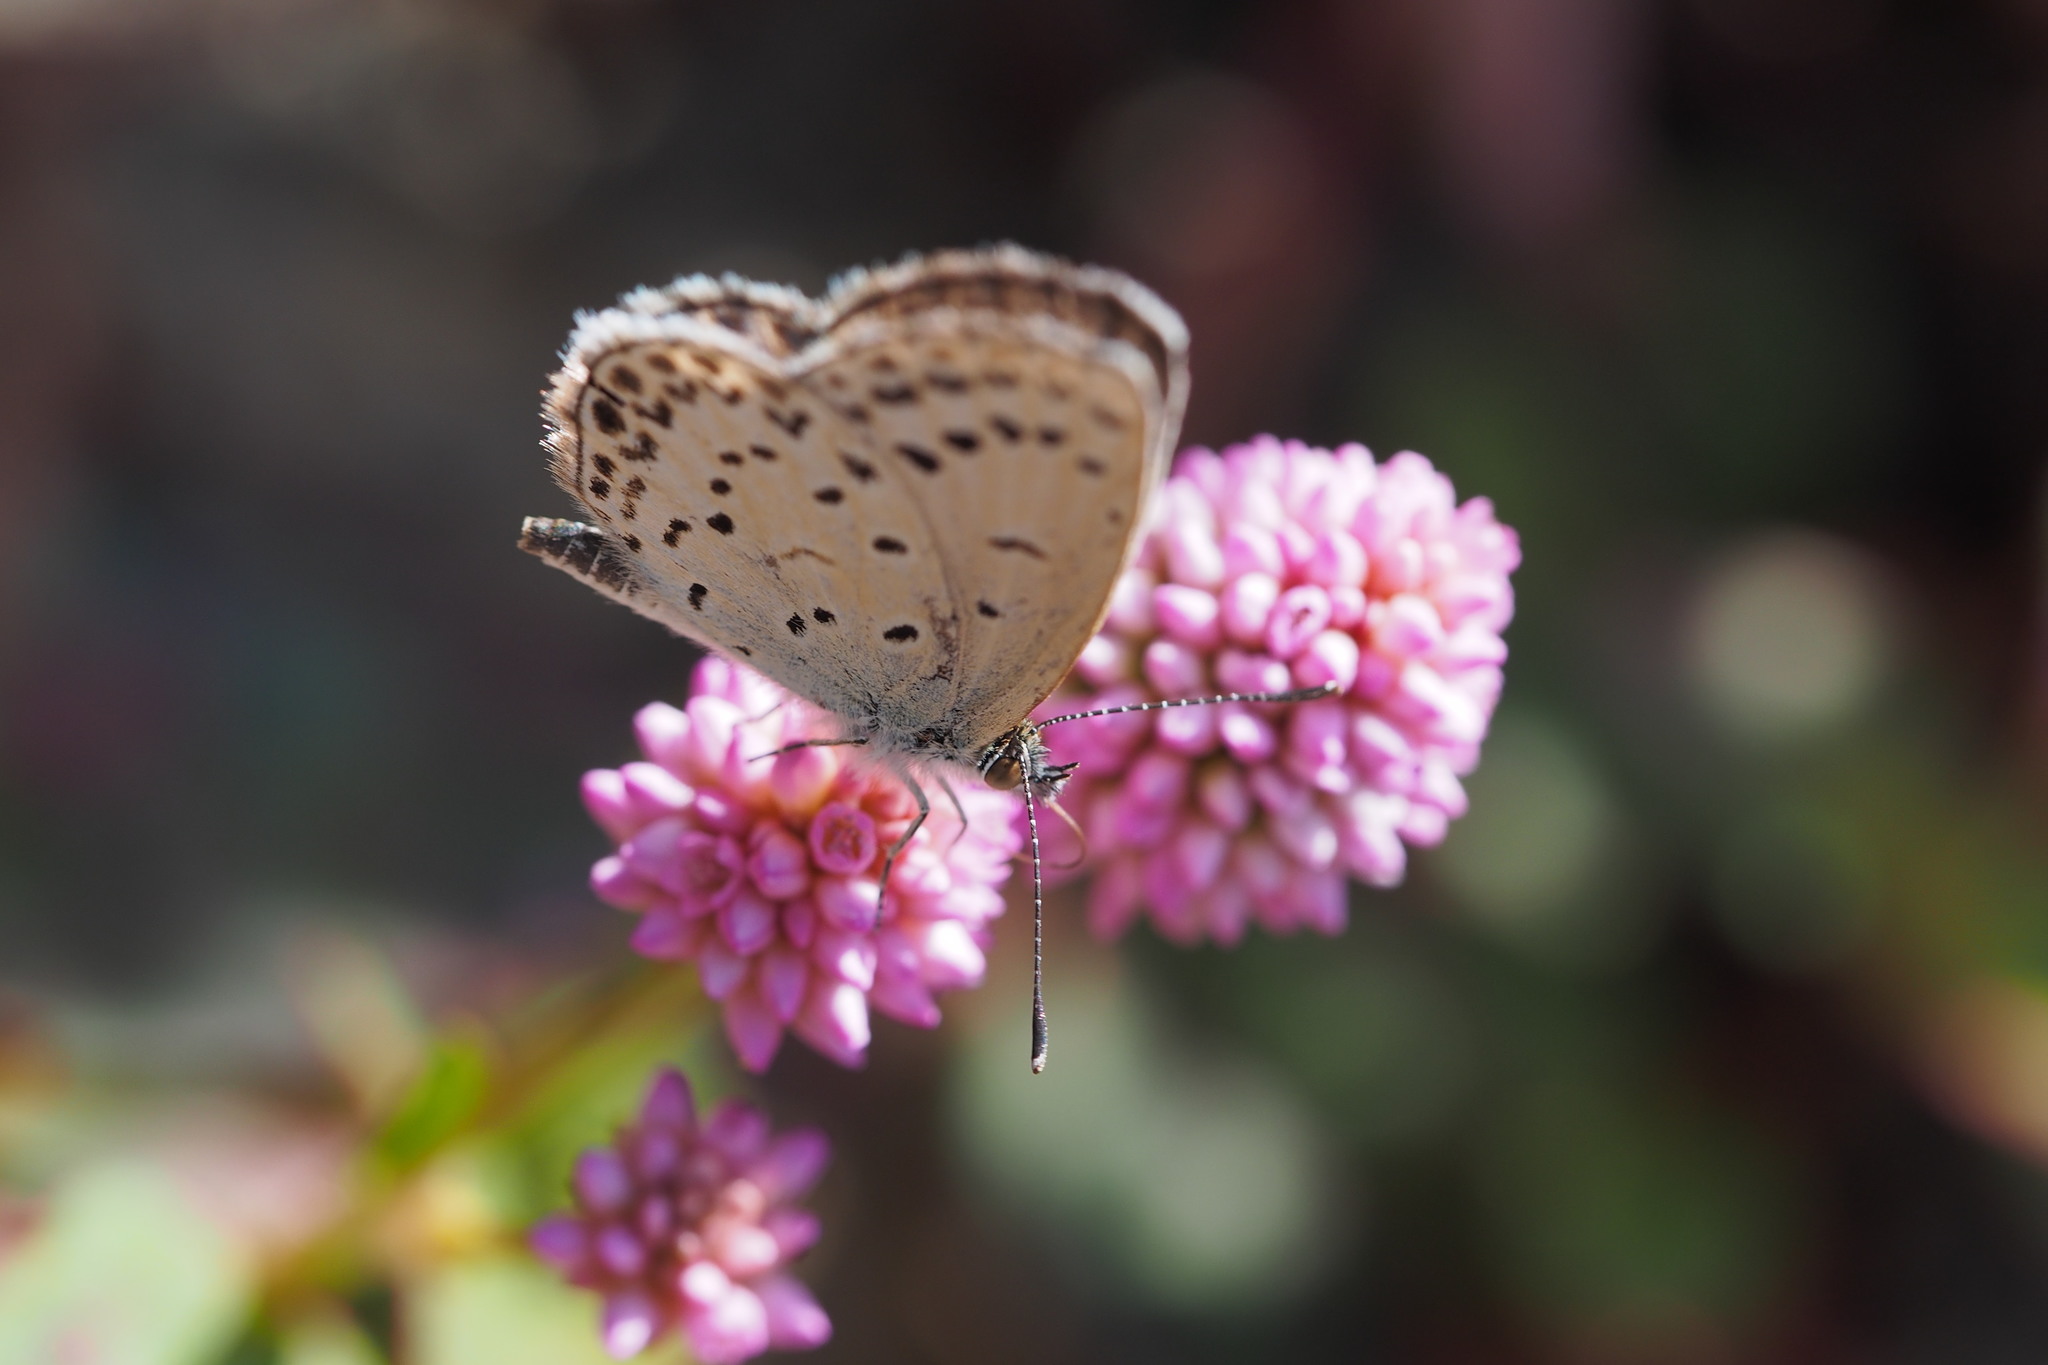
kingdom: Animalia
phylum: Arthropoda
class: Insecta
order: Lepidoptera
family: Lycaenidae
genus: Pseudozizeeria
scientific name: Pseudozizeeria maha
